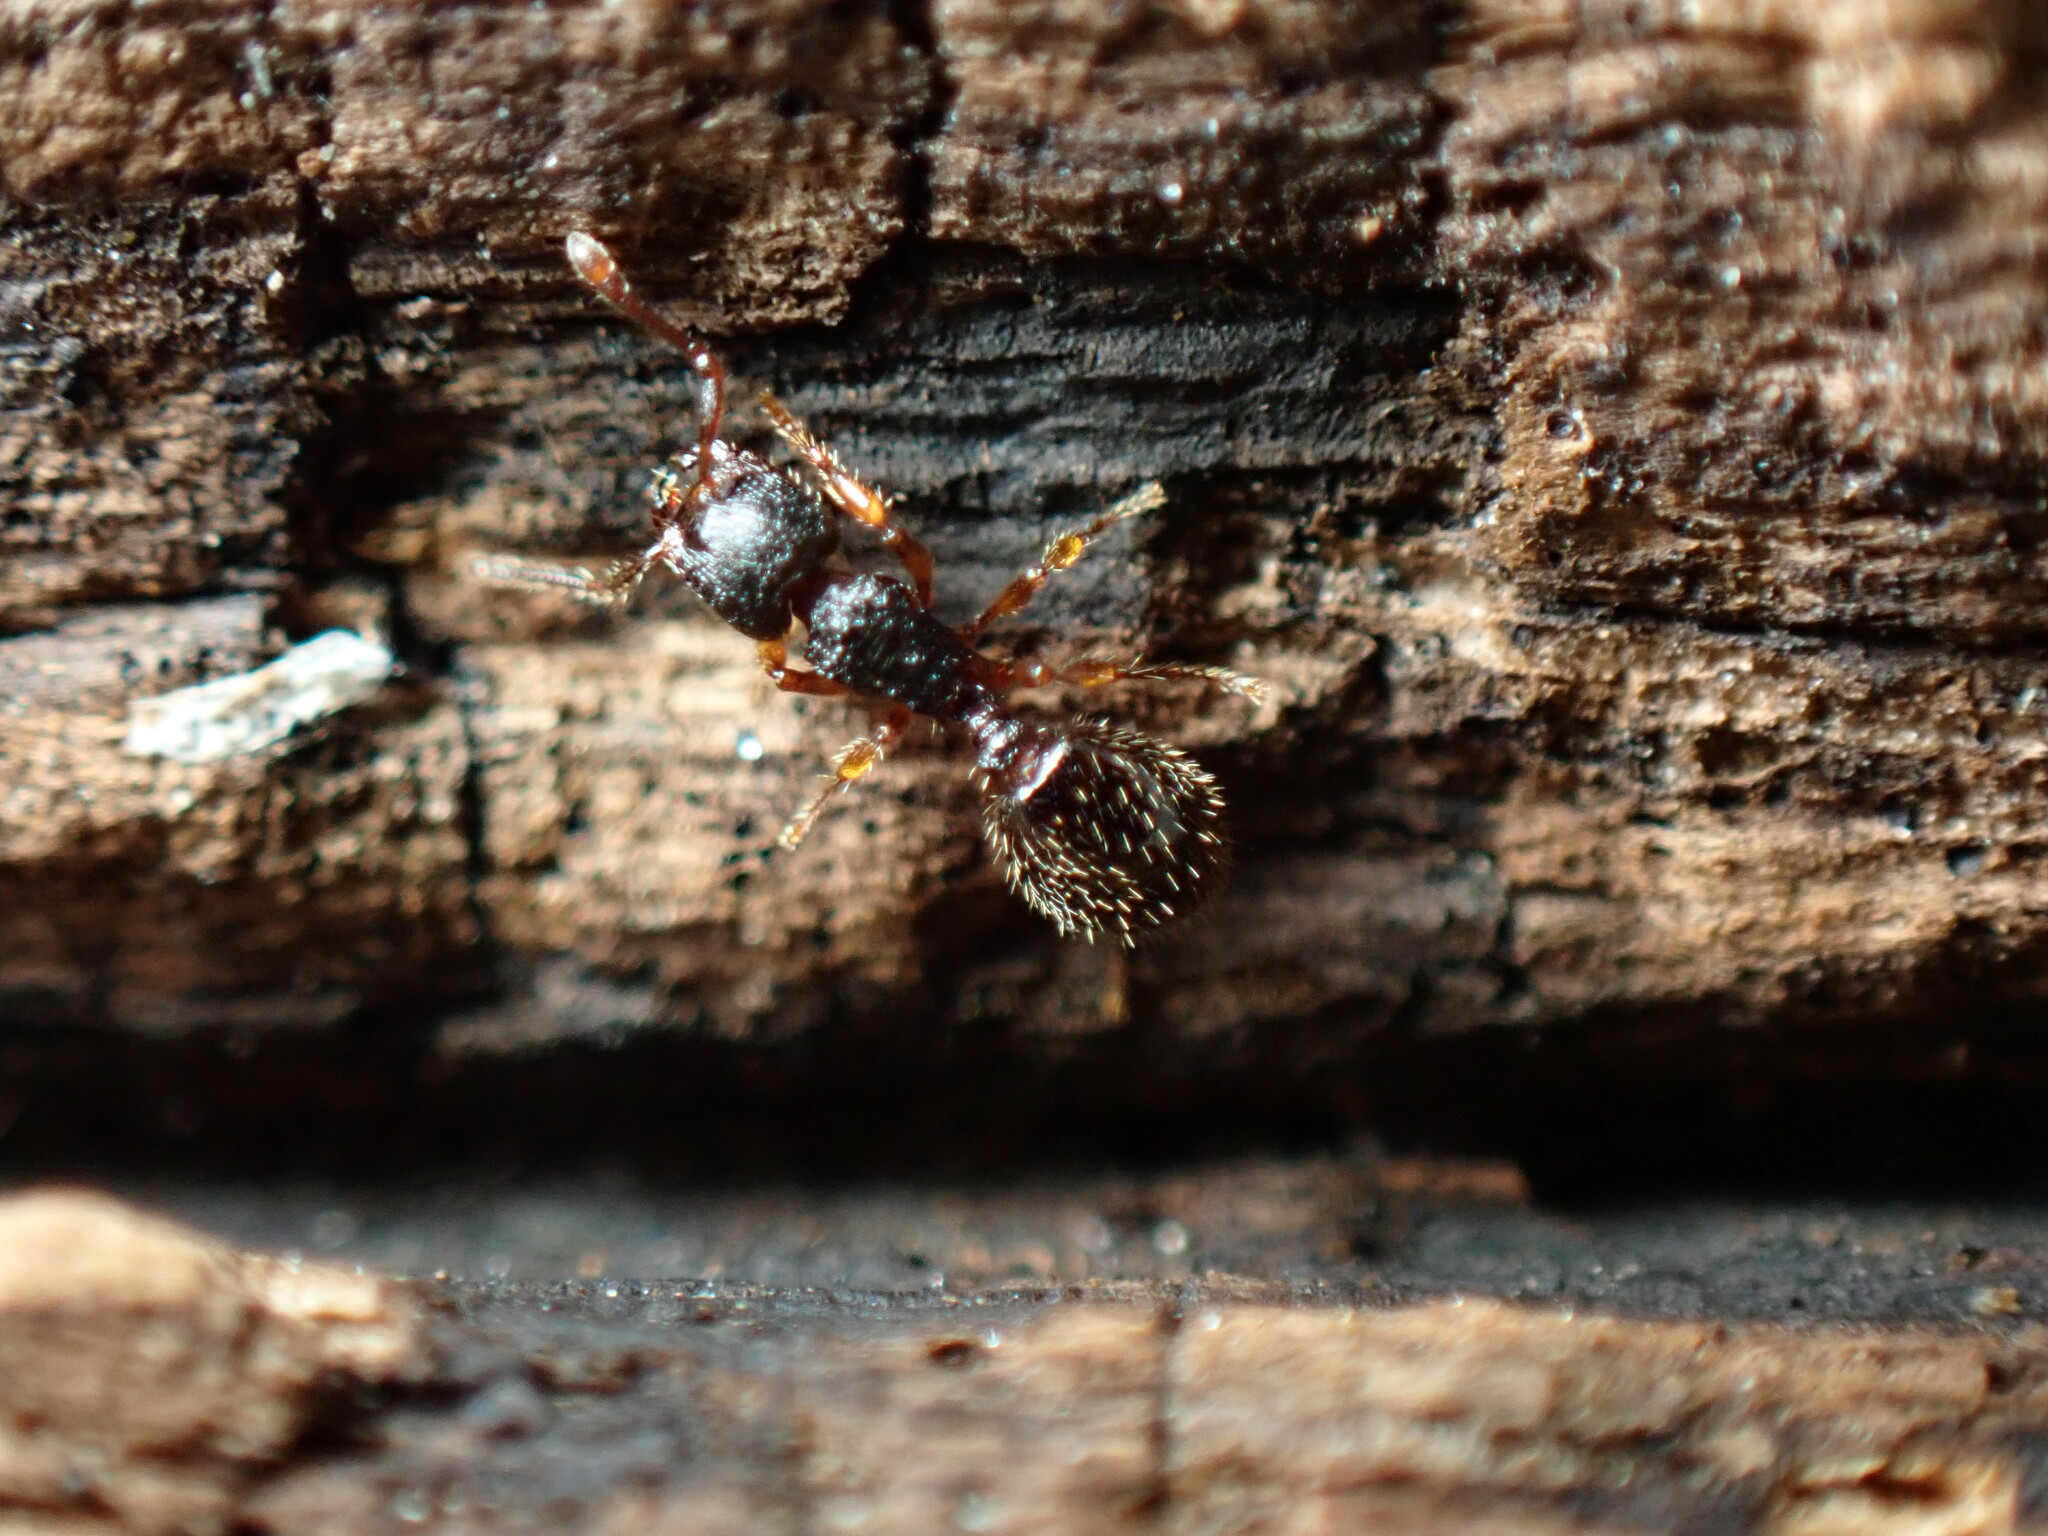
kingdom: Animalia
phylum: Arthropoda
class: Insecta
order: Hymenoptera
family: Formicidae
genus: Myrmecina
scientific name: Myrmecina americana
